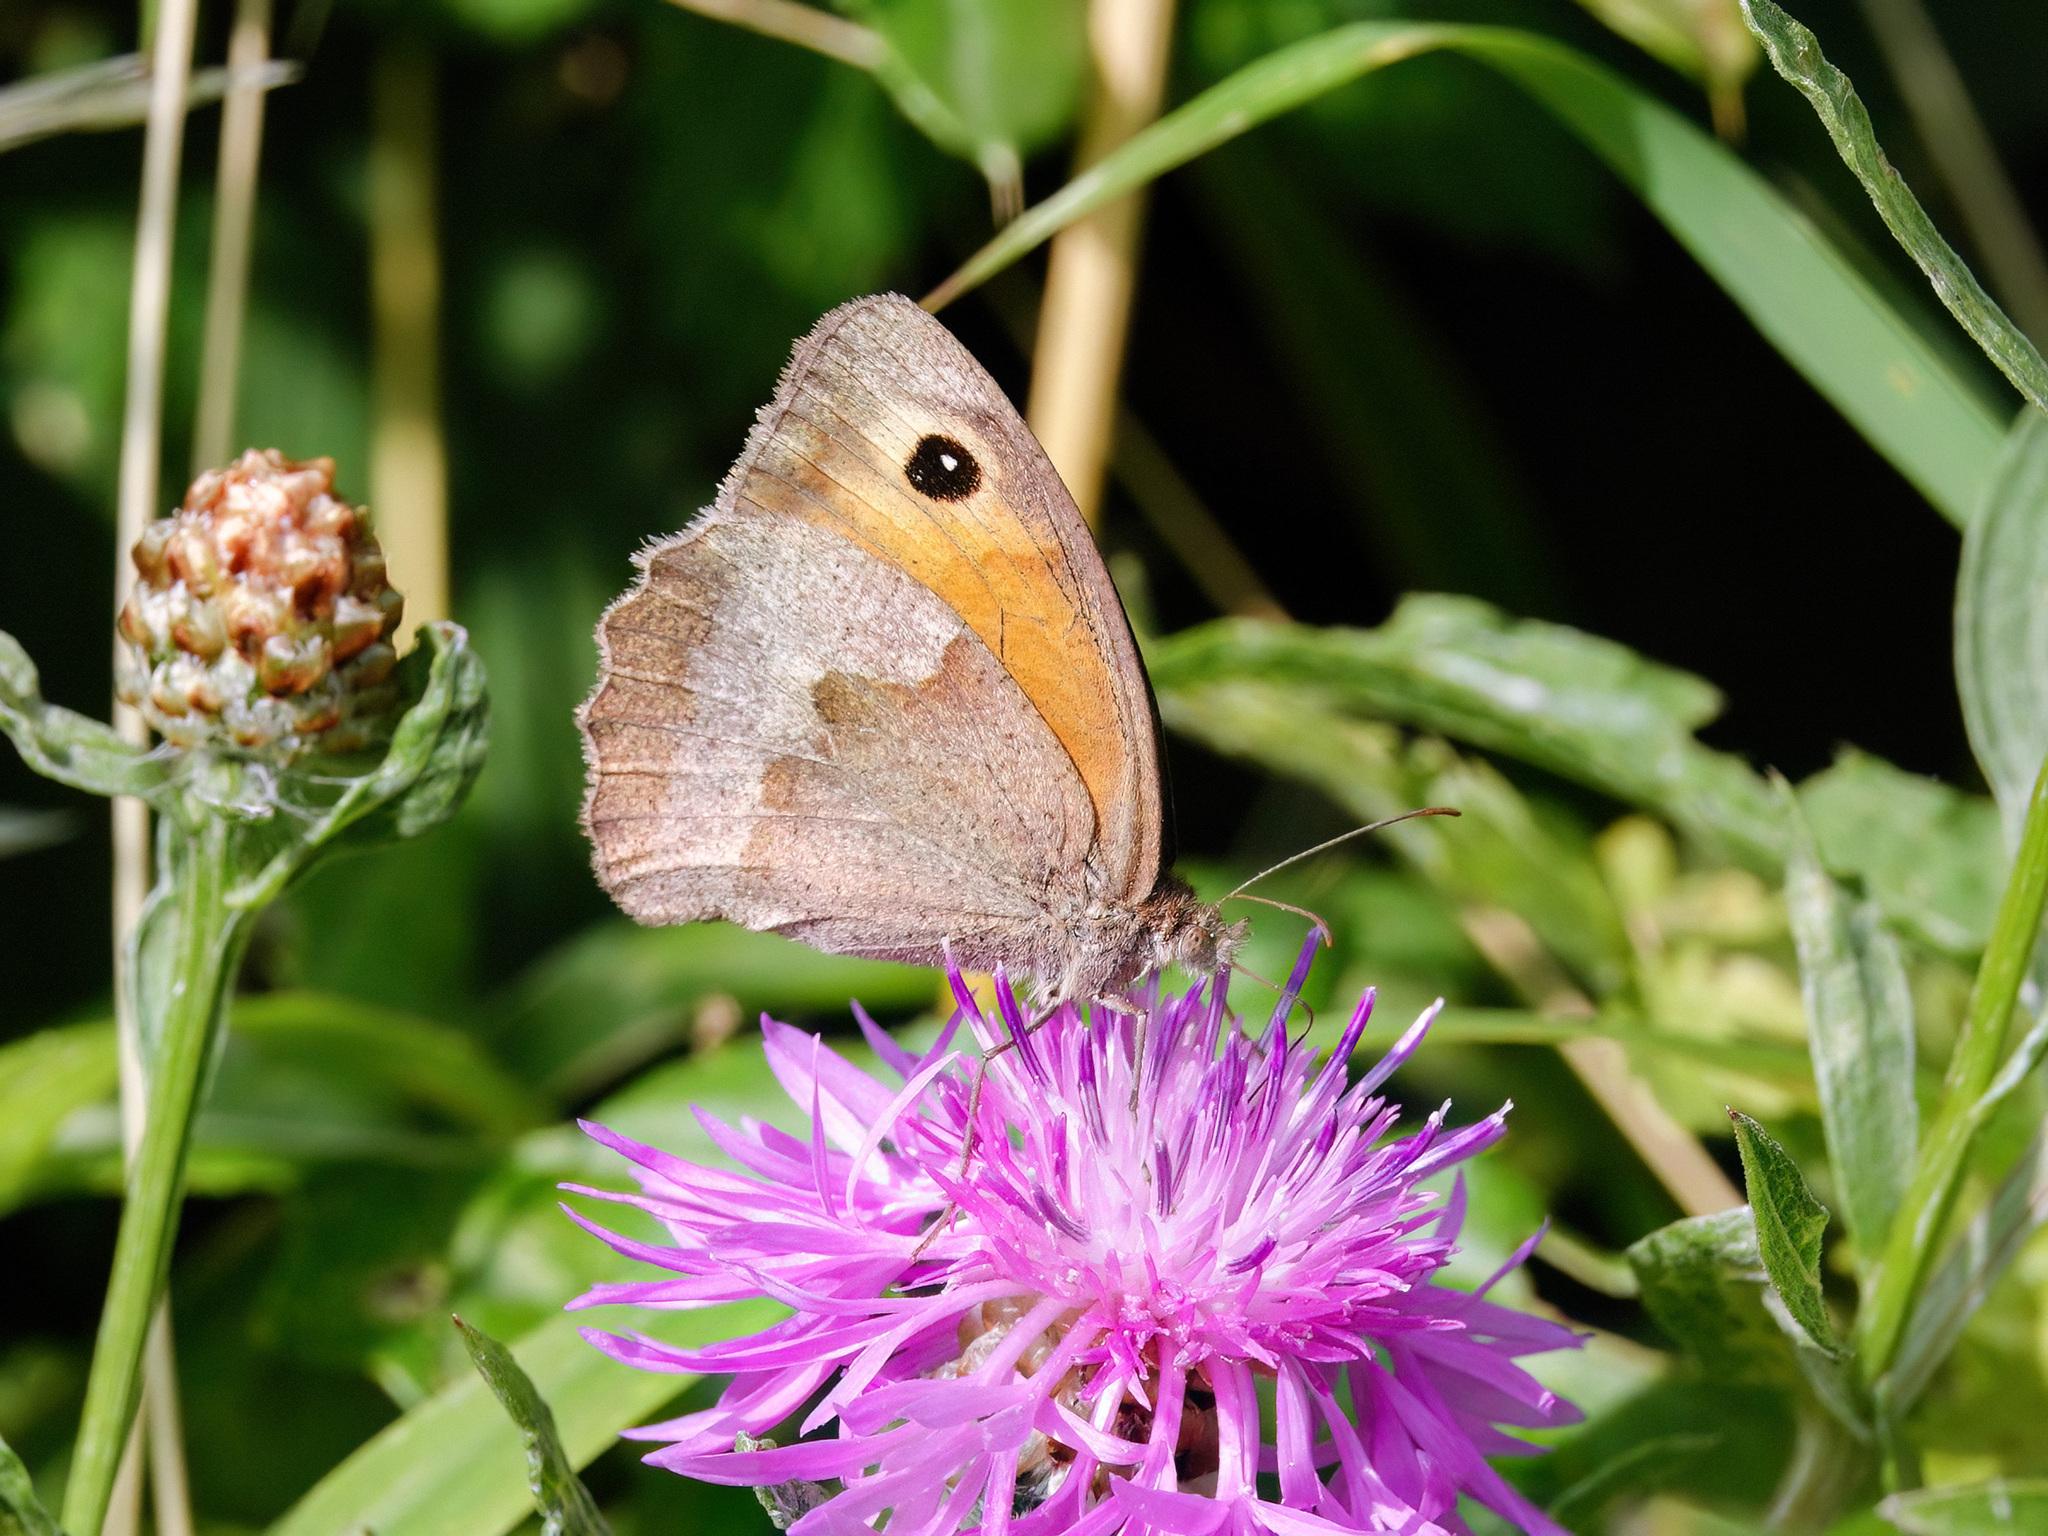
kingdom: Animalia
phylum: Arthropoda
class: Insecta
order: Lepidoptera
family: Nymphalidae
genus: Maniola
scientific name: Maniola jurtina
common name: Meadow brown
